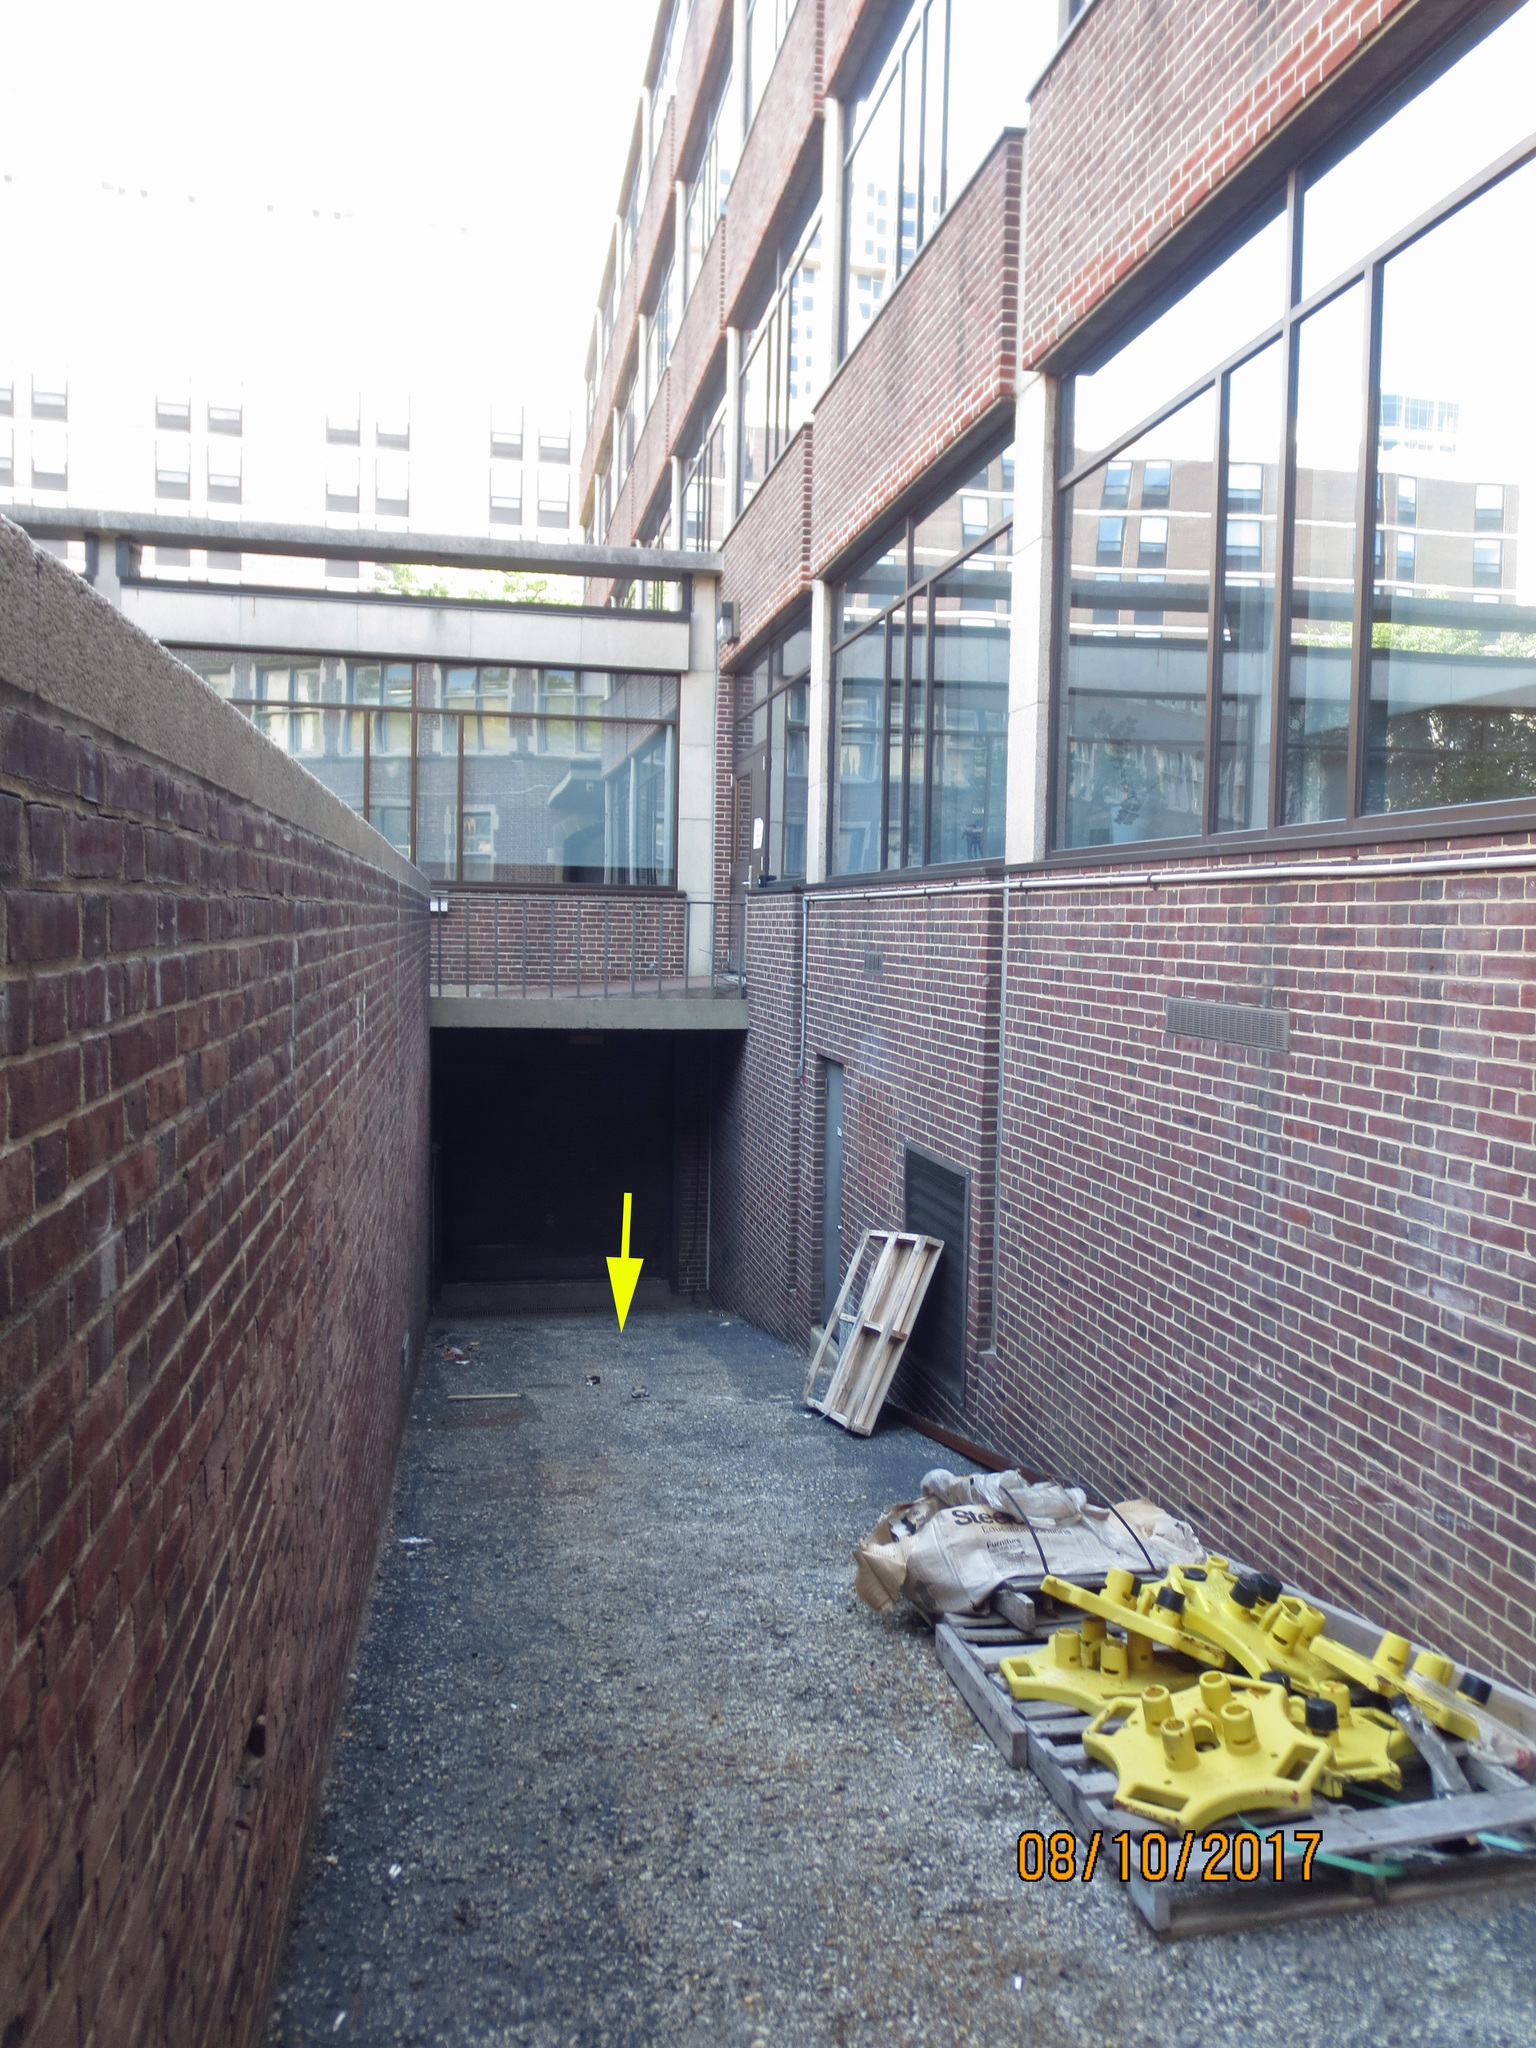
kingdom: Animalia
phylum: Chordata
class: Aves
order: Columbiformes
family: Columbidae
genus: Zenaida
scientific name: Zenaida macroura
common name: Mourning dove
